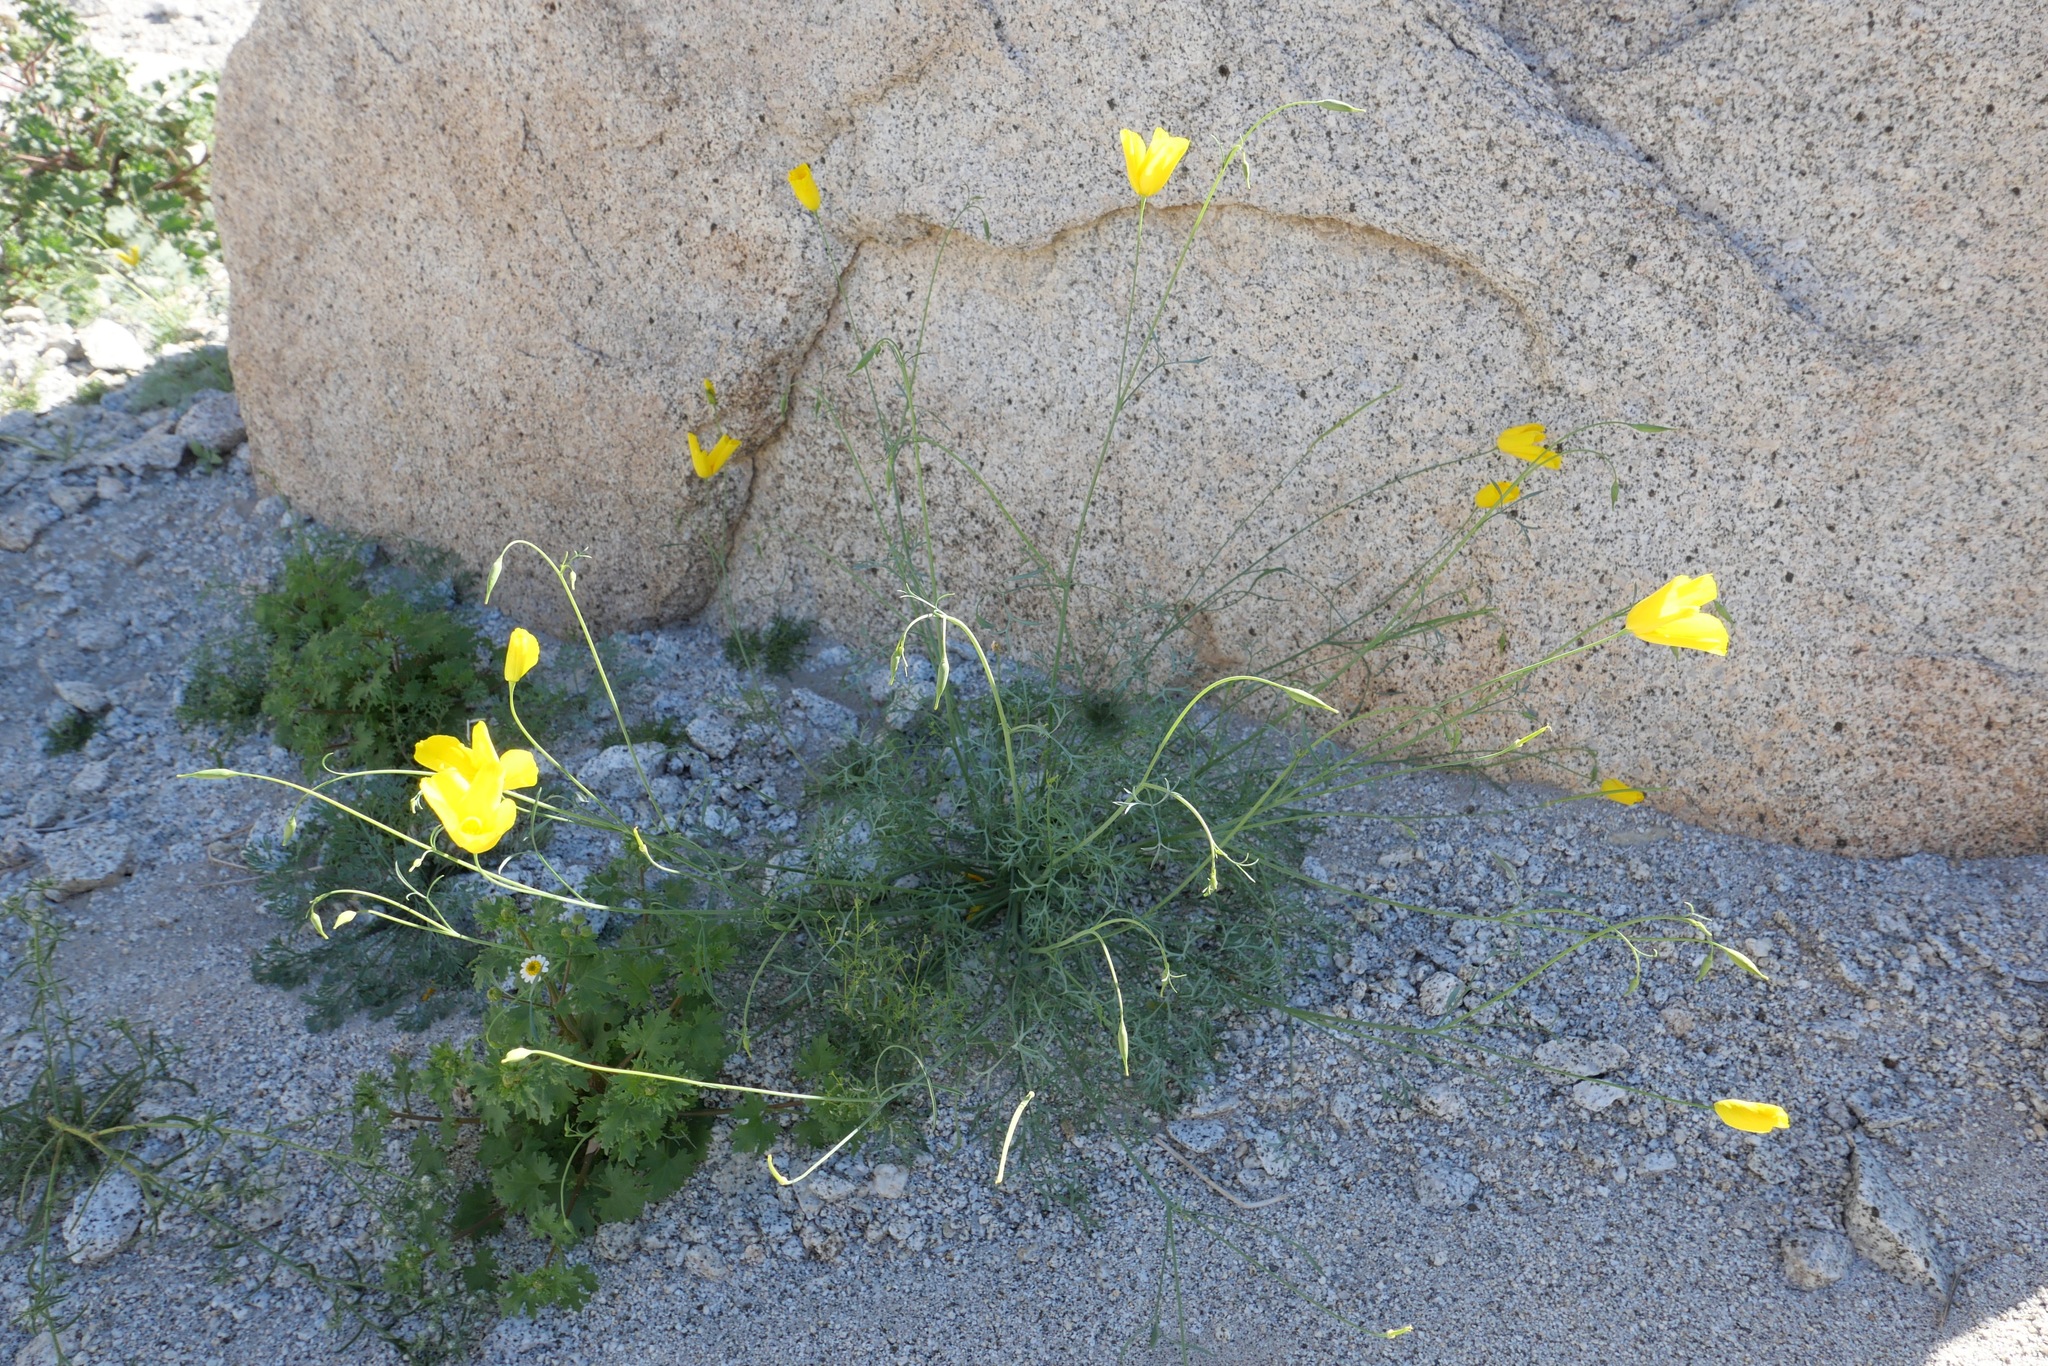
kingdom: Plantae
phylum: Tracheophyta
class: Magnoliopsida
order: Ranunculales
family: Papaveraceae
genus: Eschscholzia
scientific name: Eschscholzia parishii
